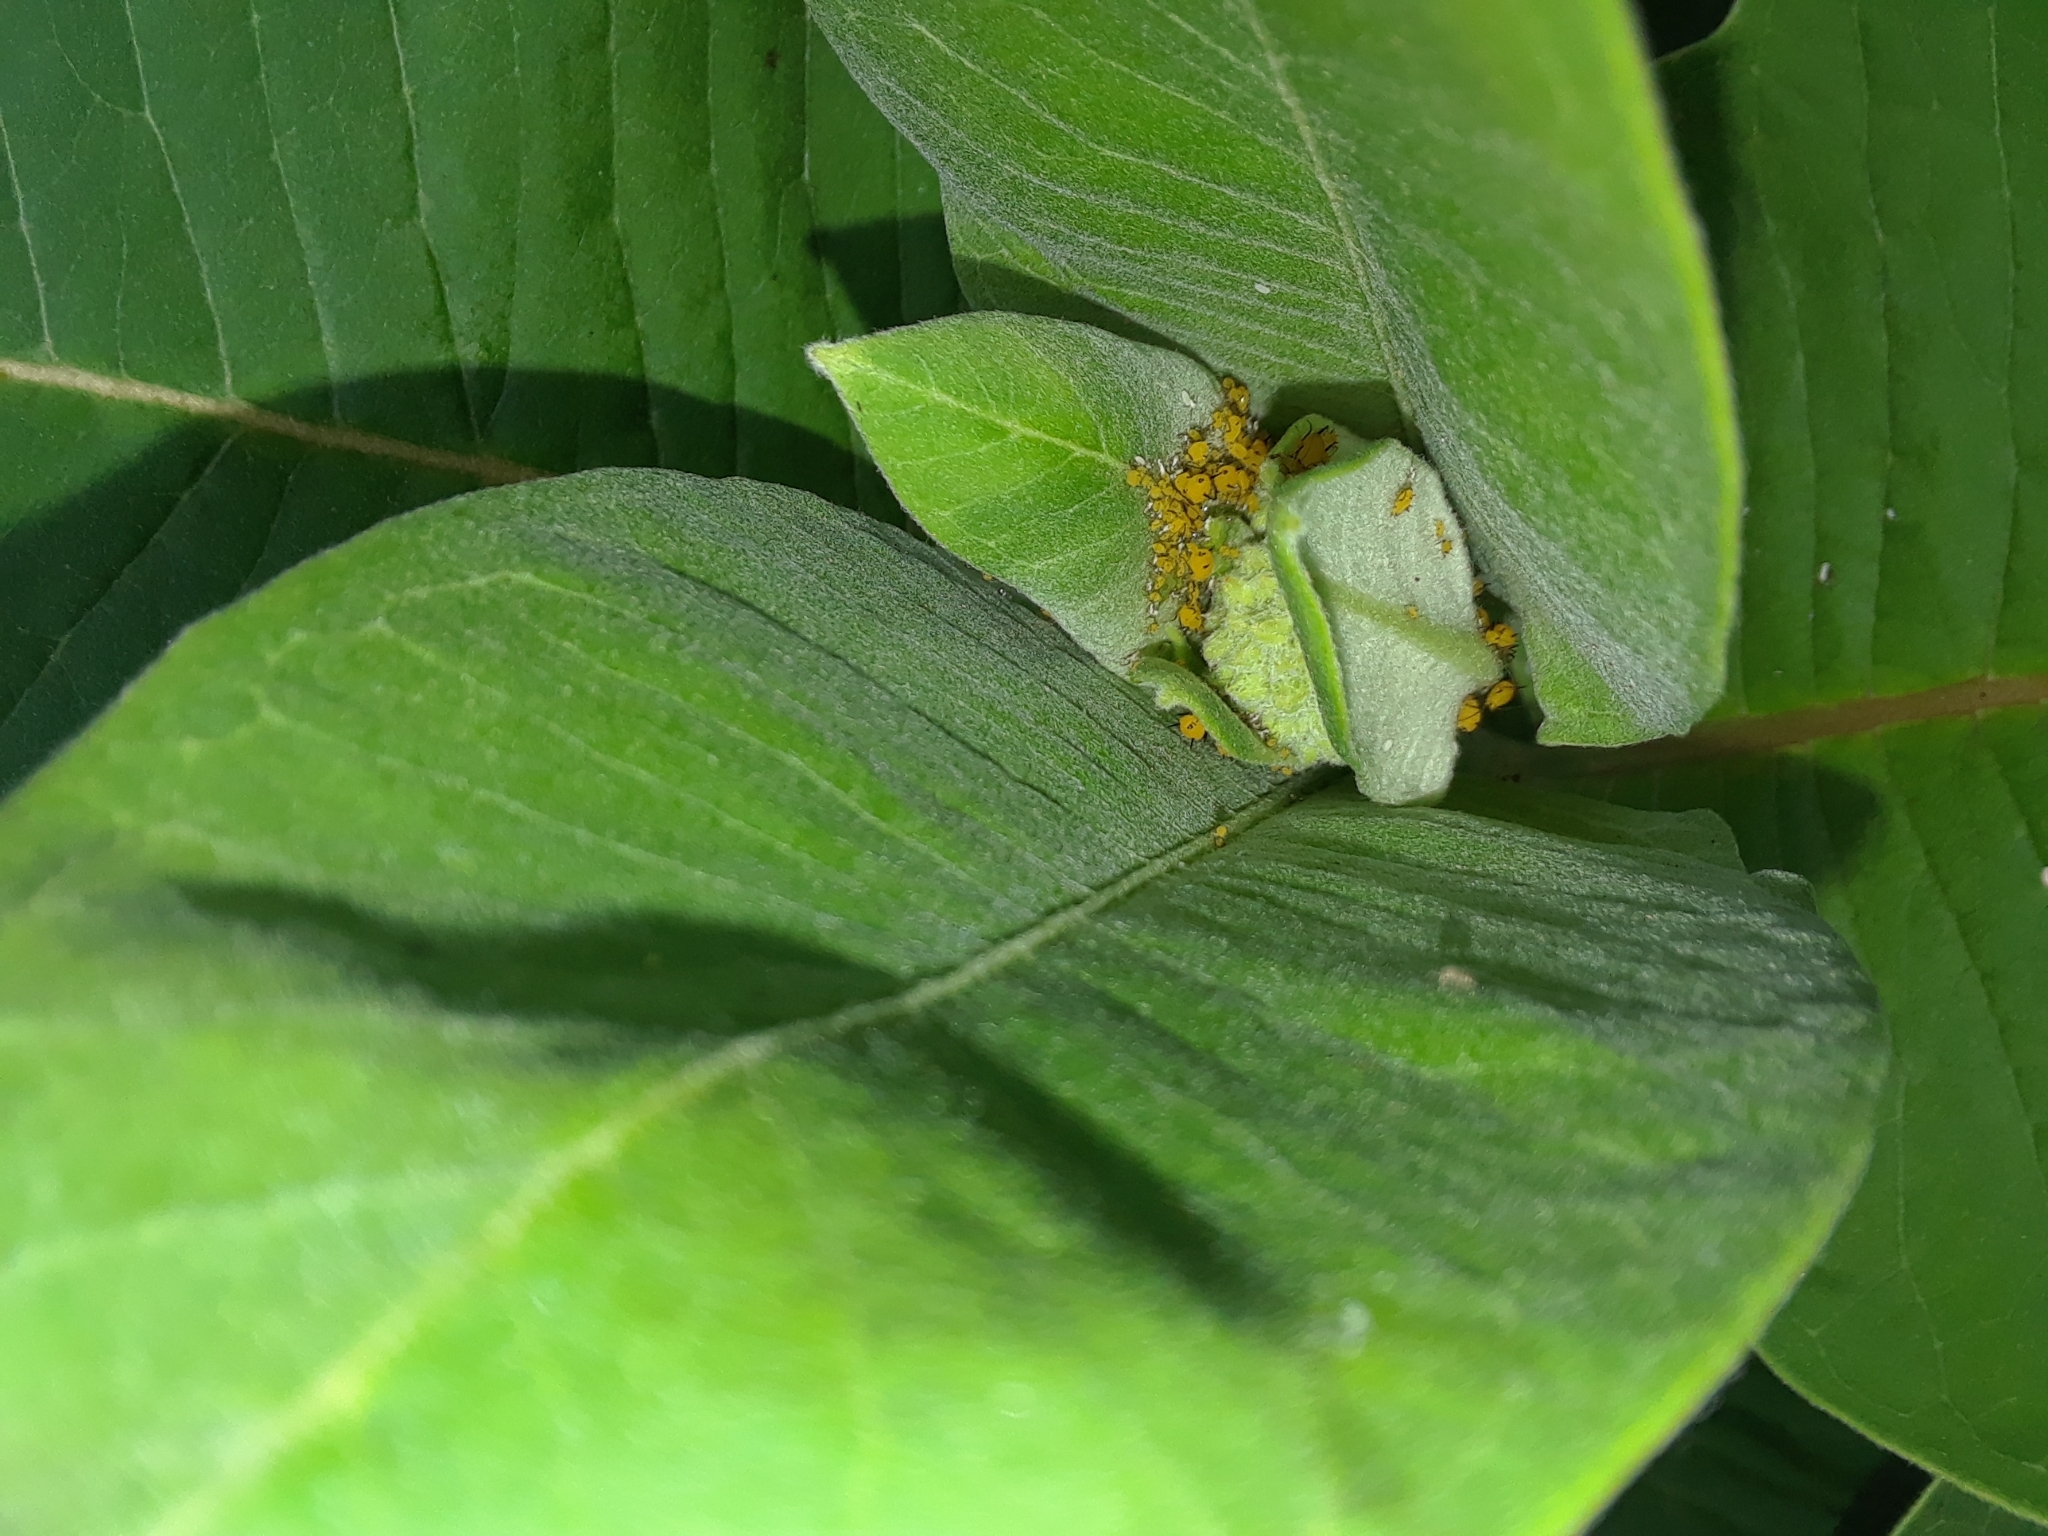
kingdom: Animalia
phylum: Arthropoda
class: Insecta
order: Hemiptera
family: Aphididae
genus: Aphis
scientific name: Aphis nerii
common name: Oleander aphid
